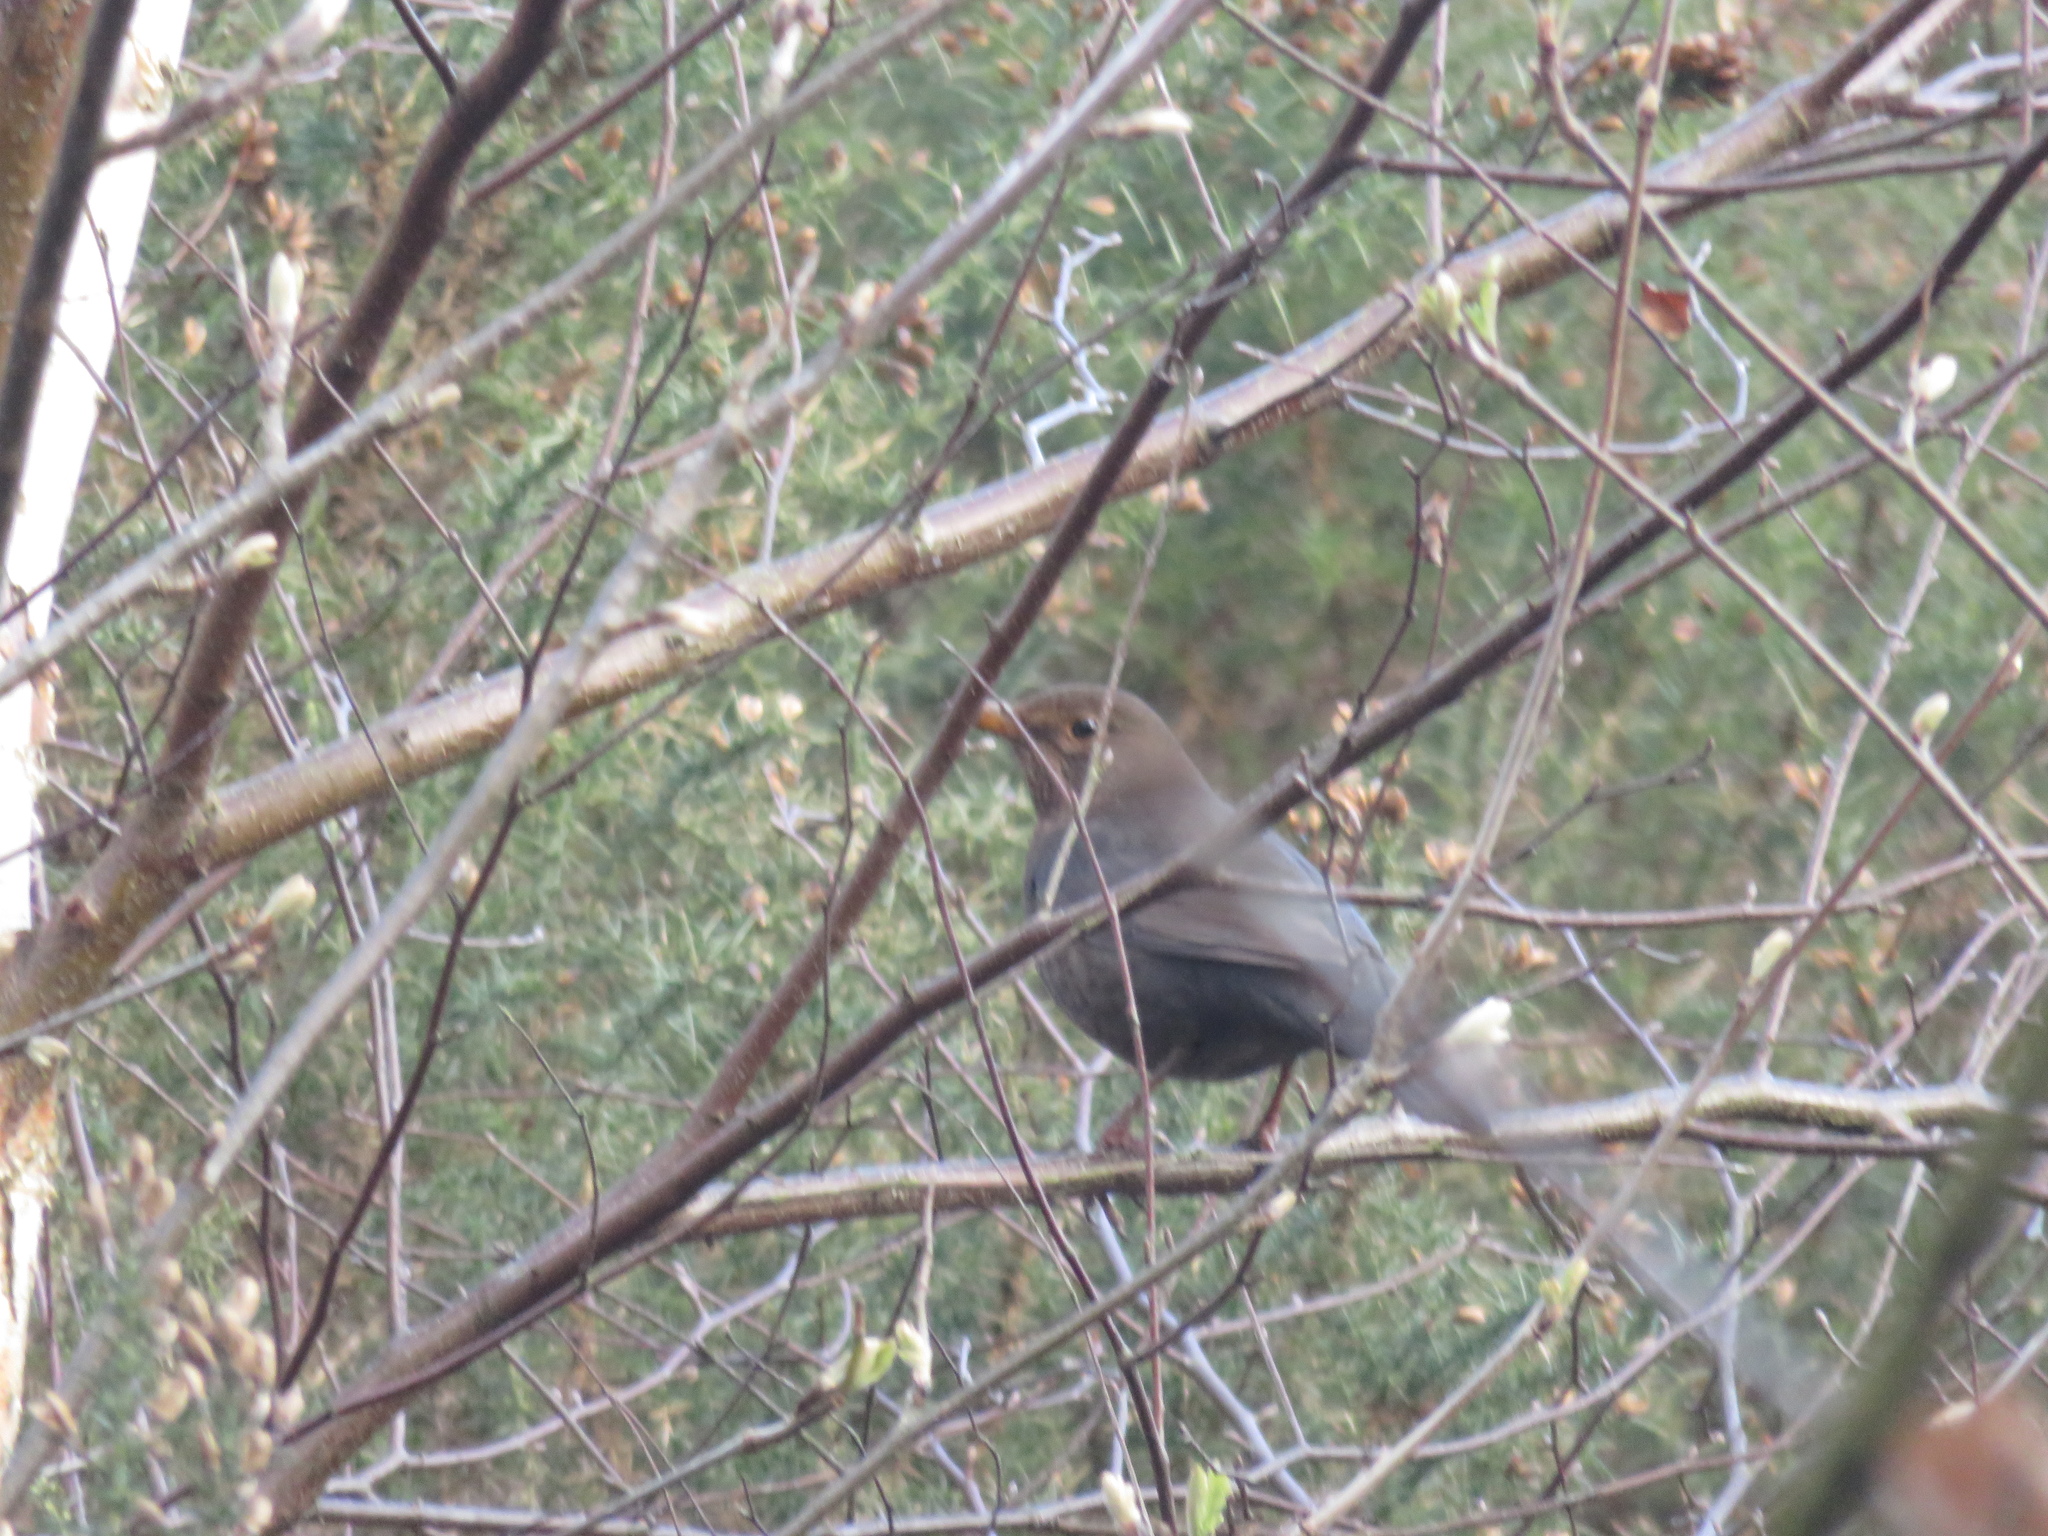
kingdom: Animalia
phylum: Chordata
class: Aves
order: Passeriformes
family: Turdidae
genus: Turdus
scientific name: Turdus merula
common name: Common blackbird
